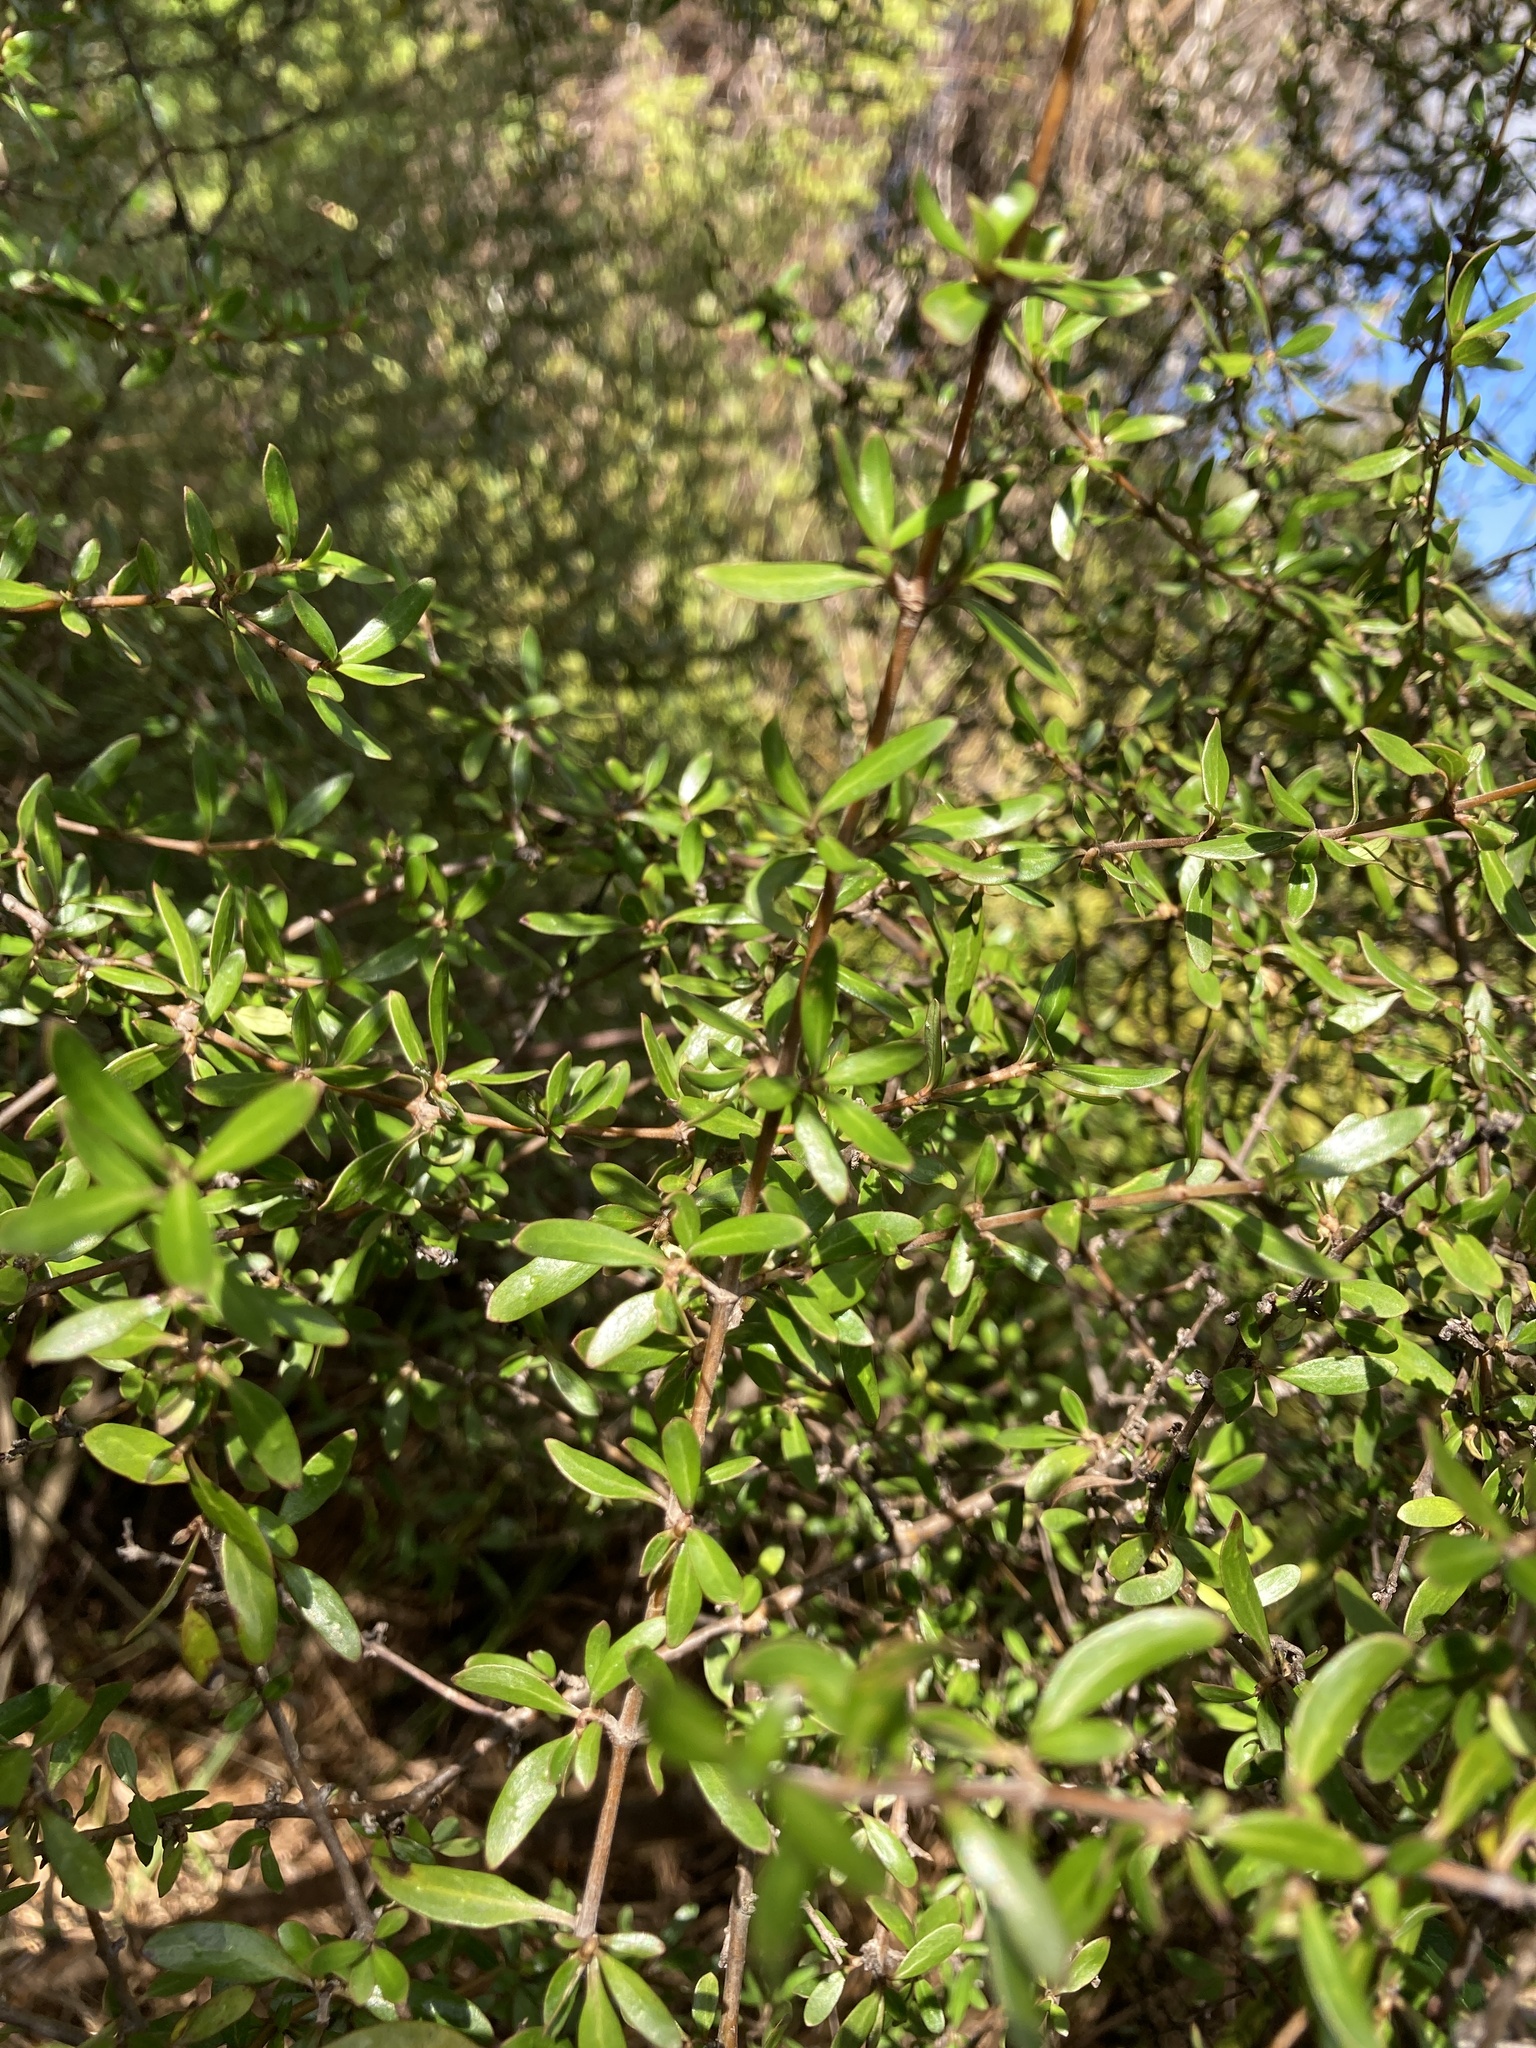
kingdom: Plantae
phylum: Tracheophyta
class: Magnoliopsida
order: Gentianales
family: Rubiaceae
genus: Coprosma
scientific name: Coprosma propinqua
